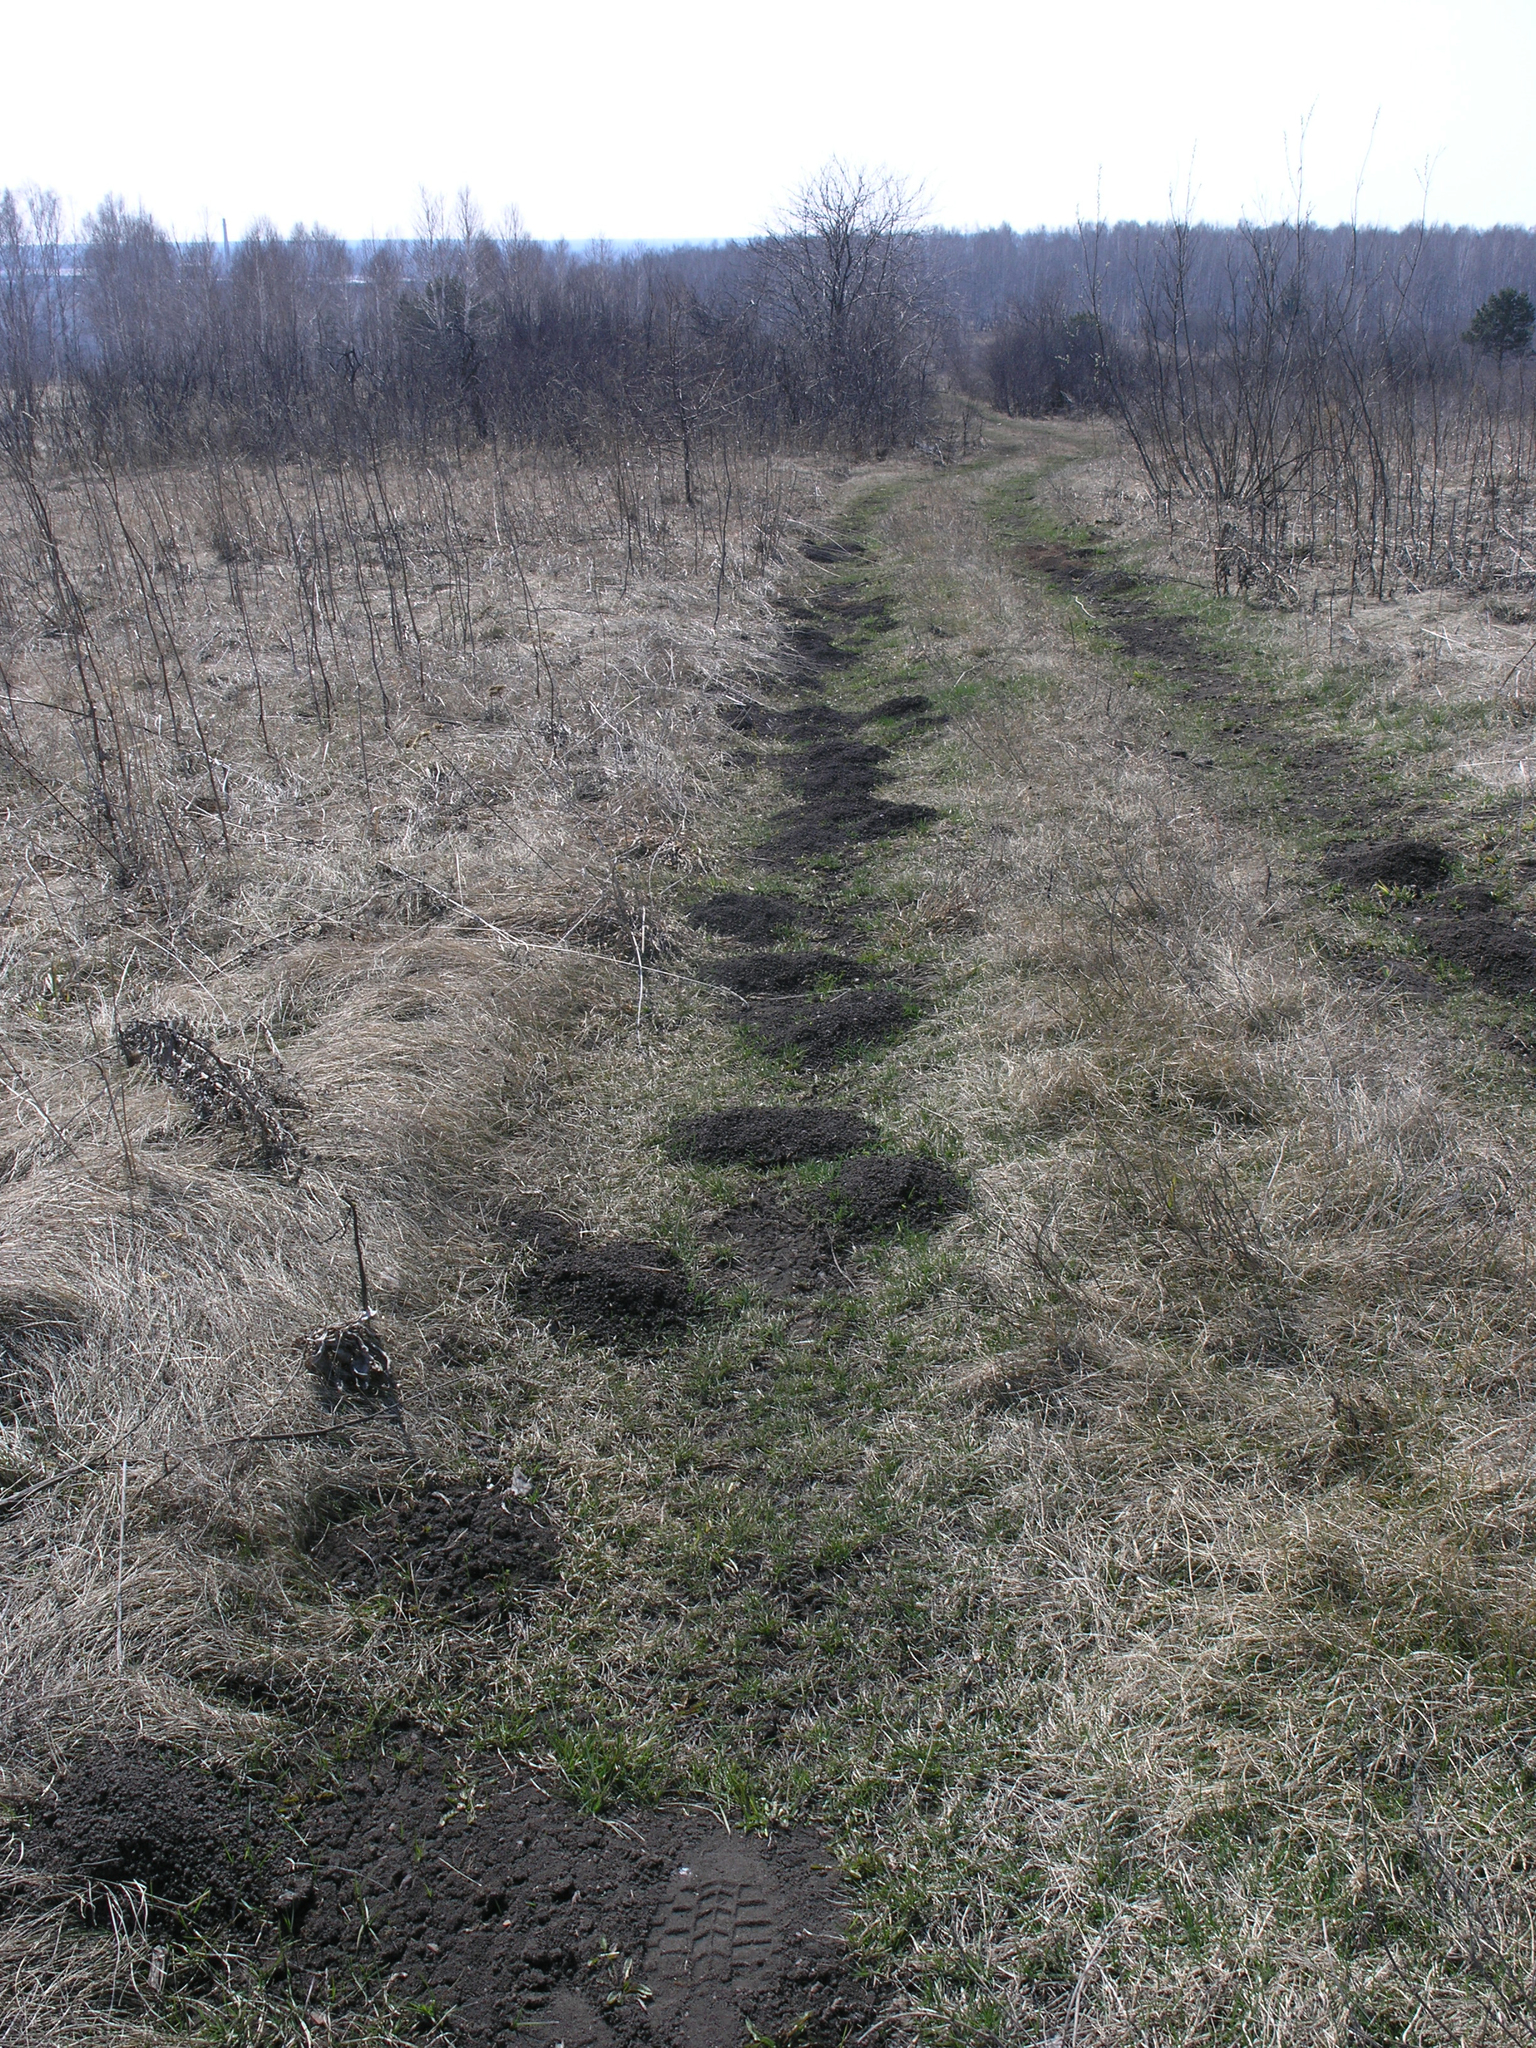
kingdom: Animalia
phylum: Chordata
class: Mammalia
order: Rodentia
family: Cricetidae
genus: Ellobius
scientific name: Ellobius talpinus
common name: Northern mole vole
